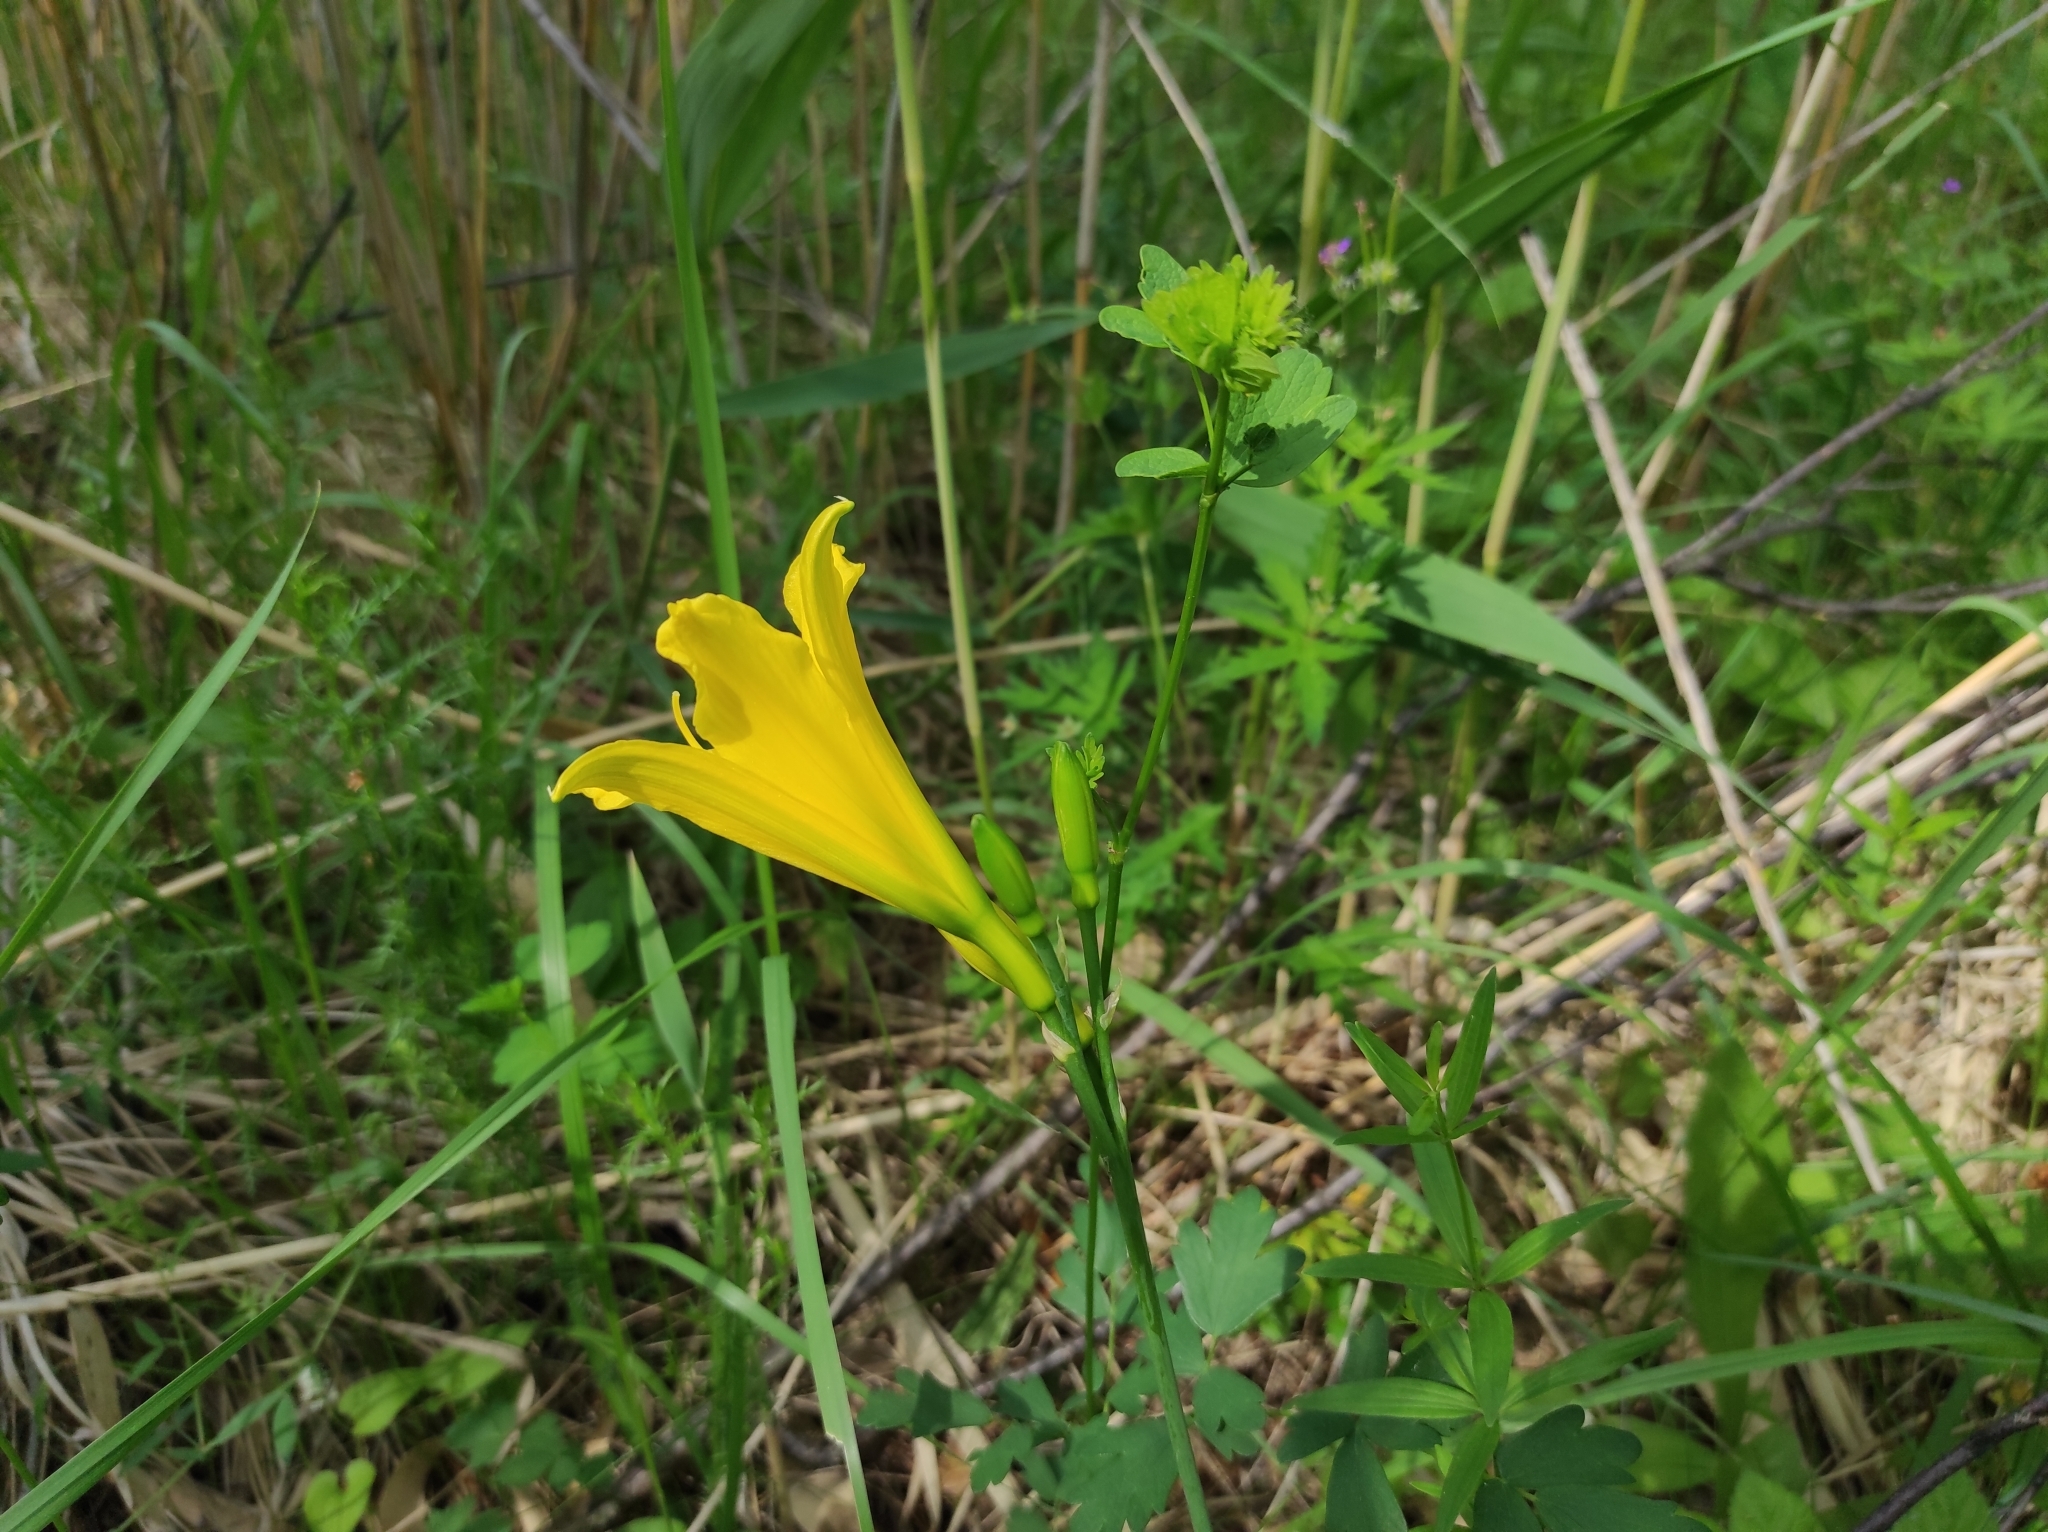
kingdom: Plantae
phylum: Tracheophyta
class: Liliopsida
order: Asparagales
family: Asphodelaceae
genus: Hemerocallis
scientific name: Hemerocallis minor
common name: Small daylily
